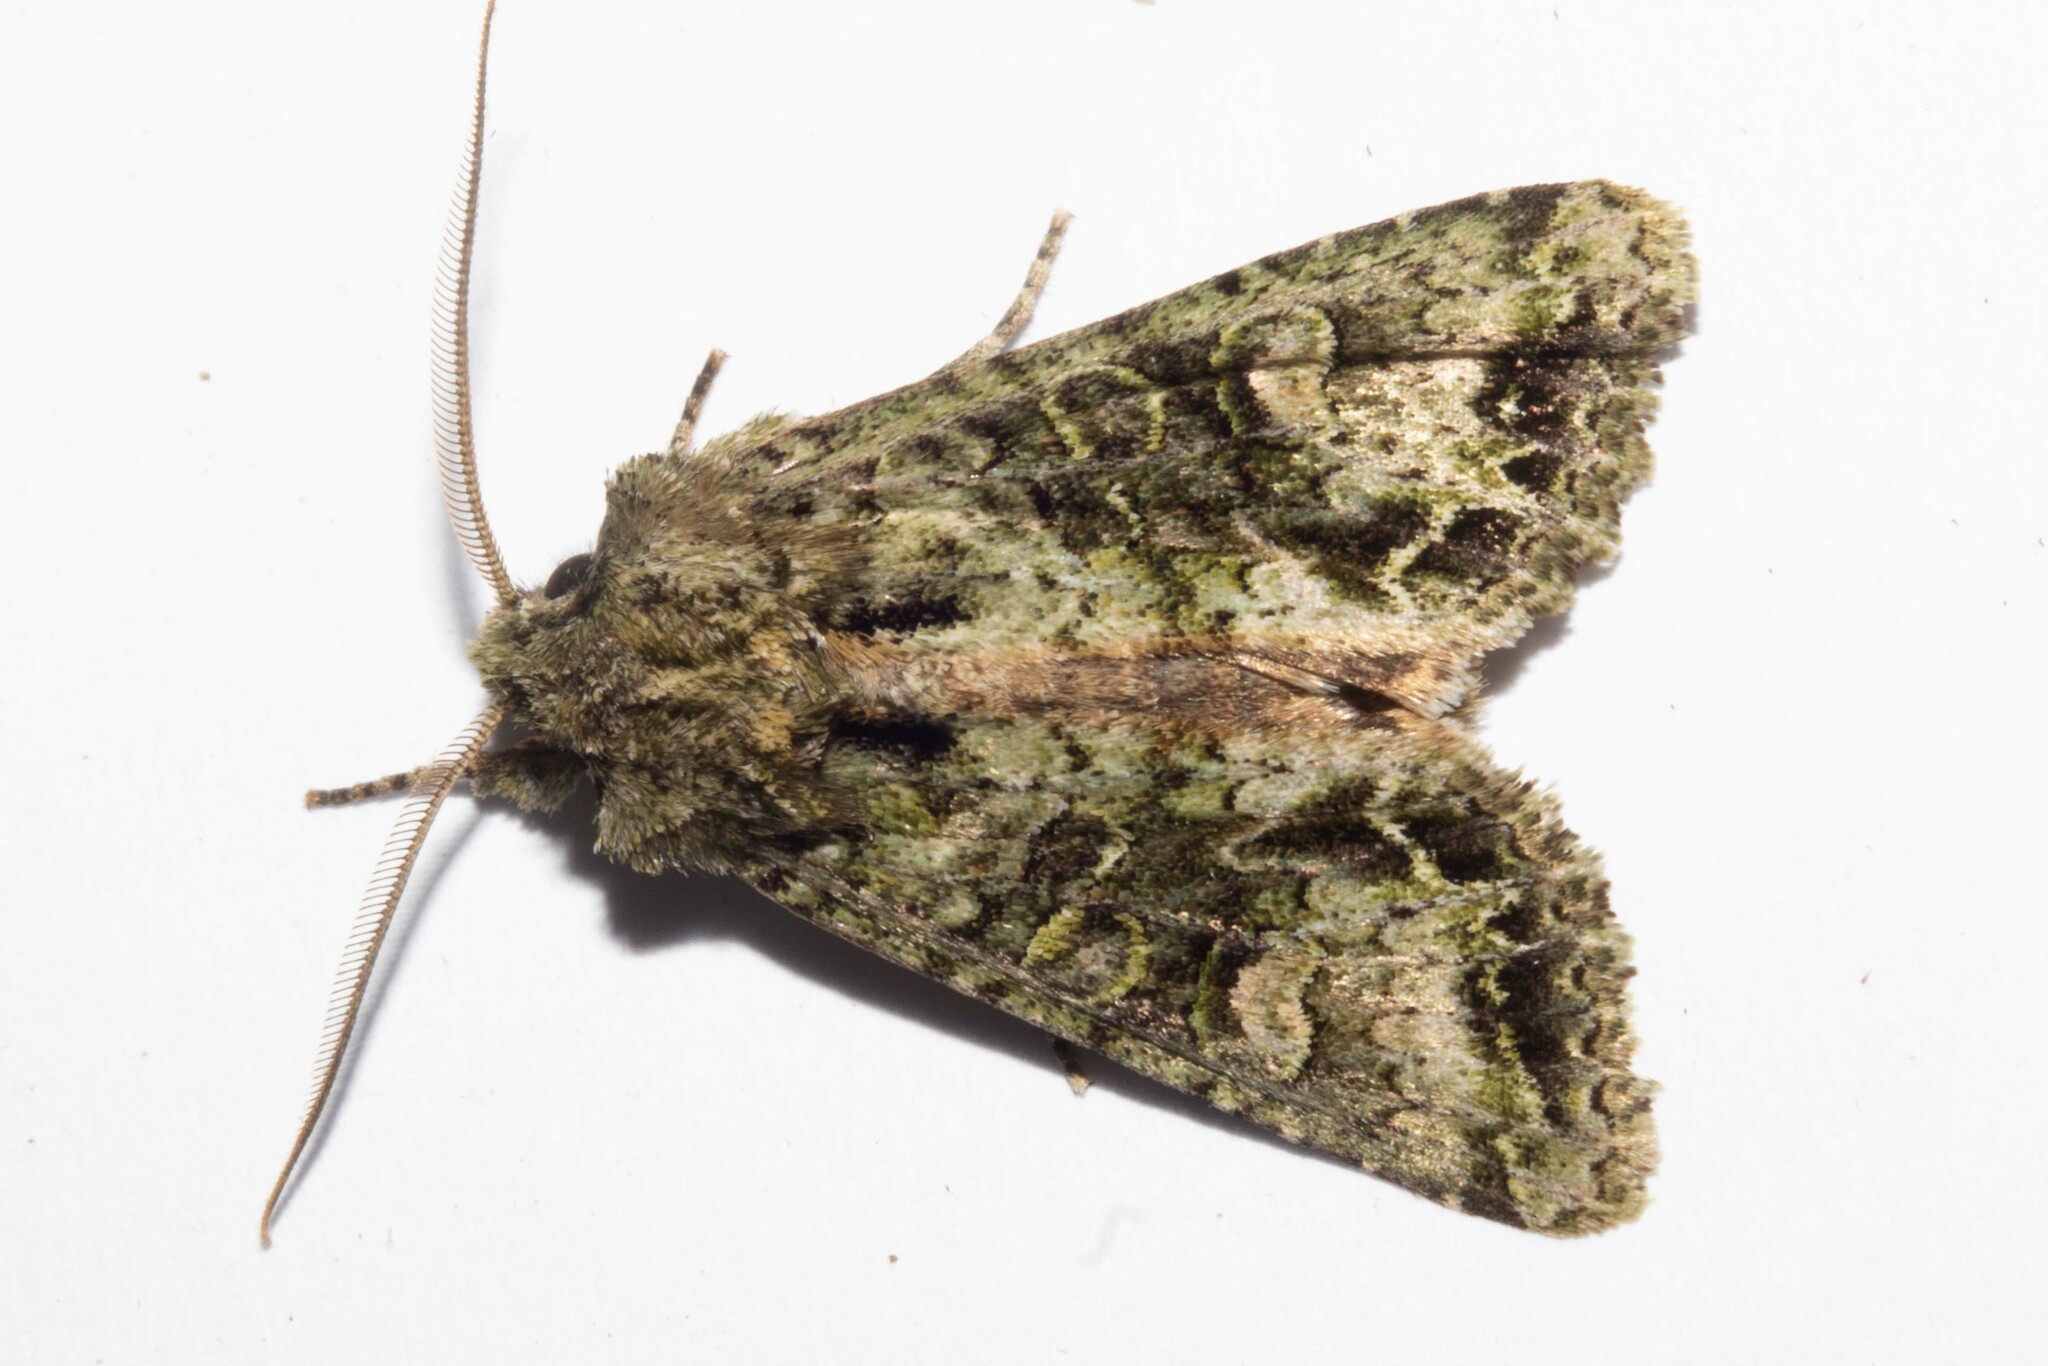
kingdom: Animalia
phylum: Arthropoda
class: Insecta
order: Lepidoptera
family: Noctuidae
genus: Ichneutica
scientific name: Ichneutica
